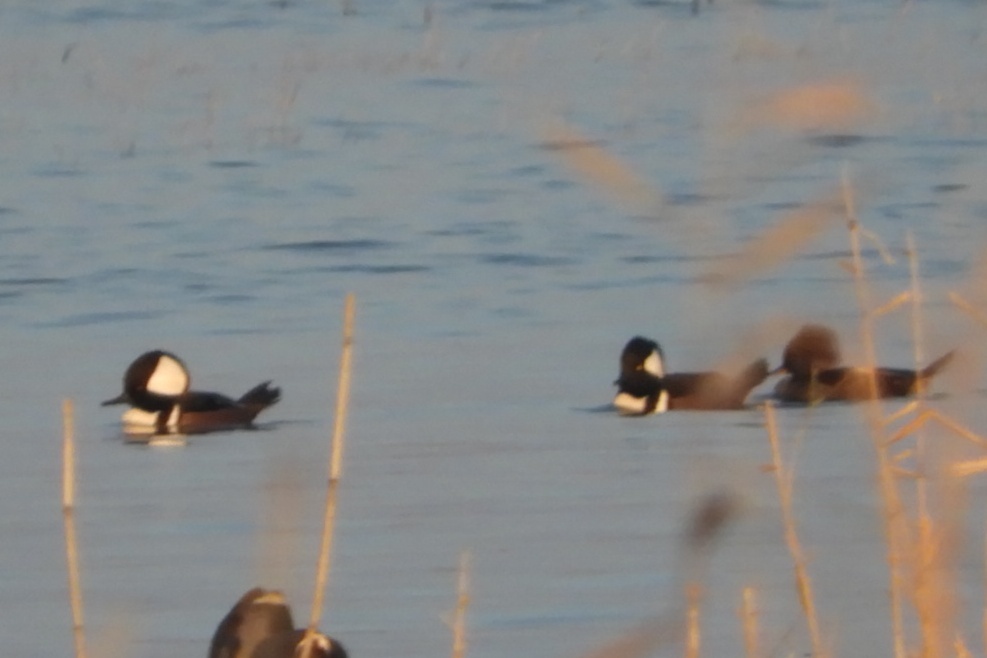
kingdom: Animalia
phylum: Chordata
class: Aves
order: Anseriformes
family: Anatidae
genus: Lophodytes
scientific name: Lophodytes cucullatus
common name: Hooded merganser
